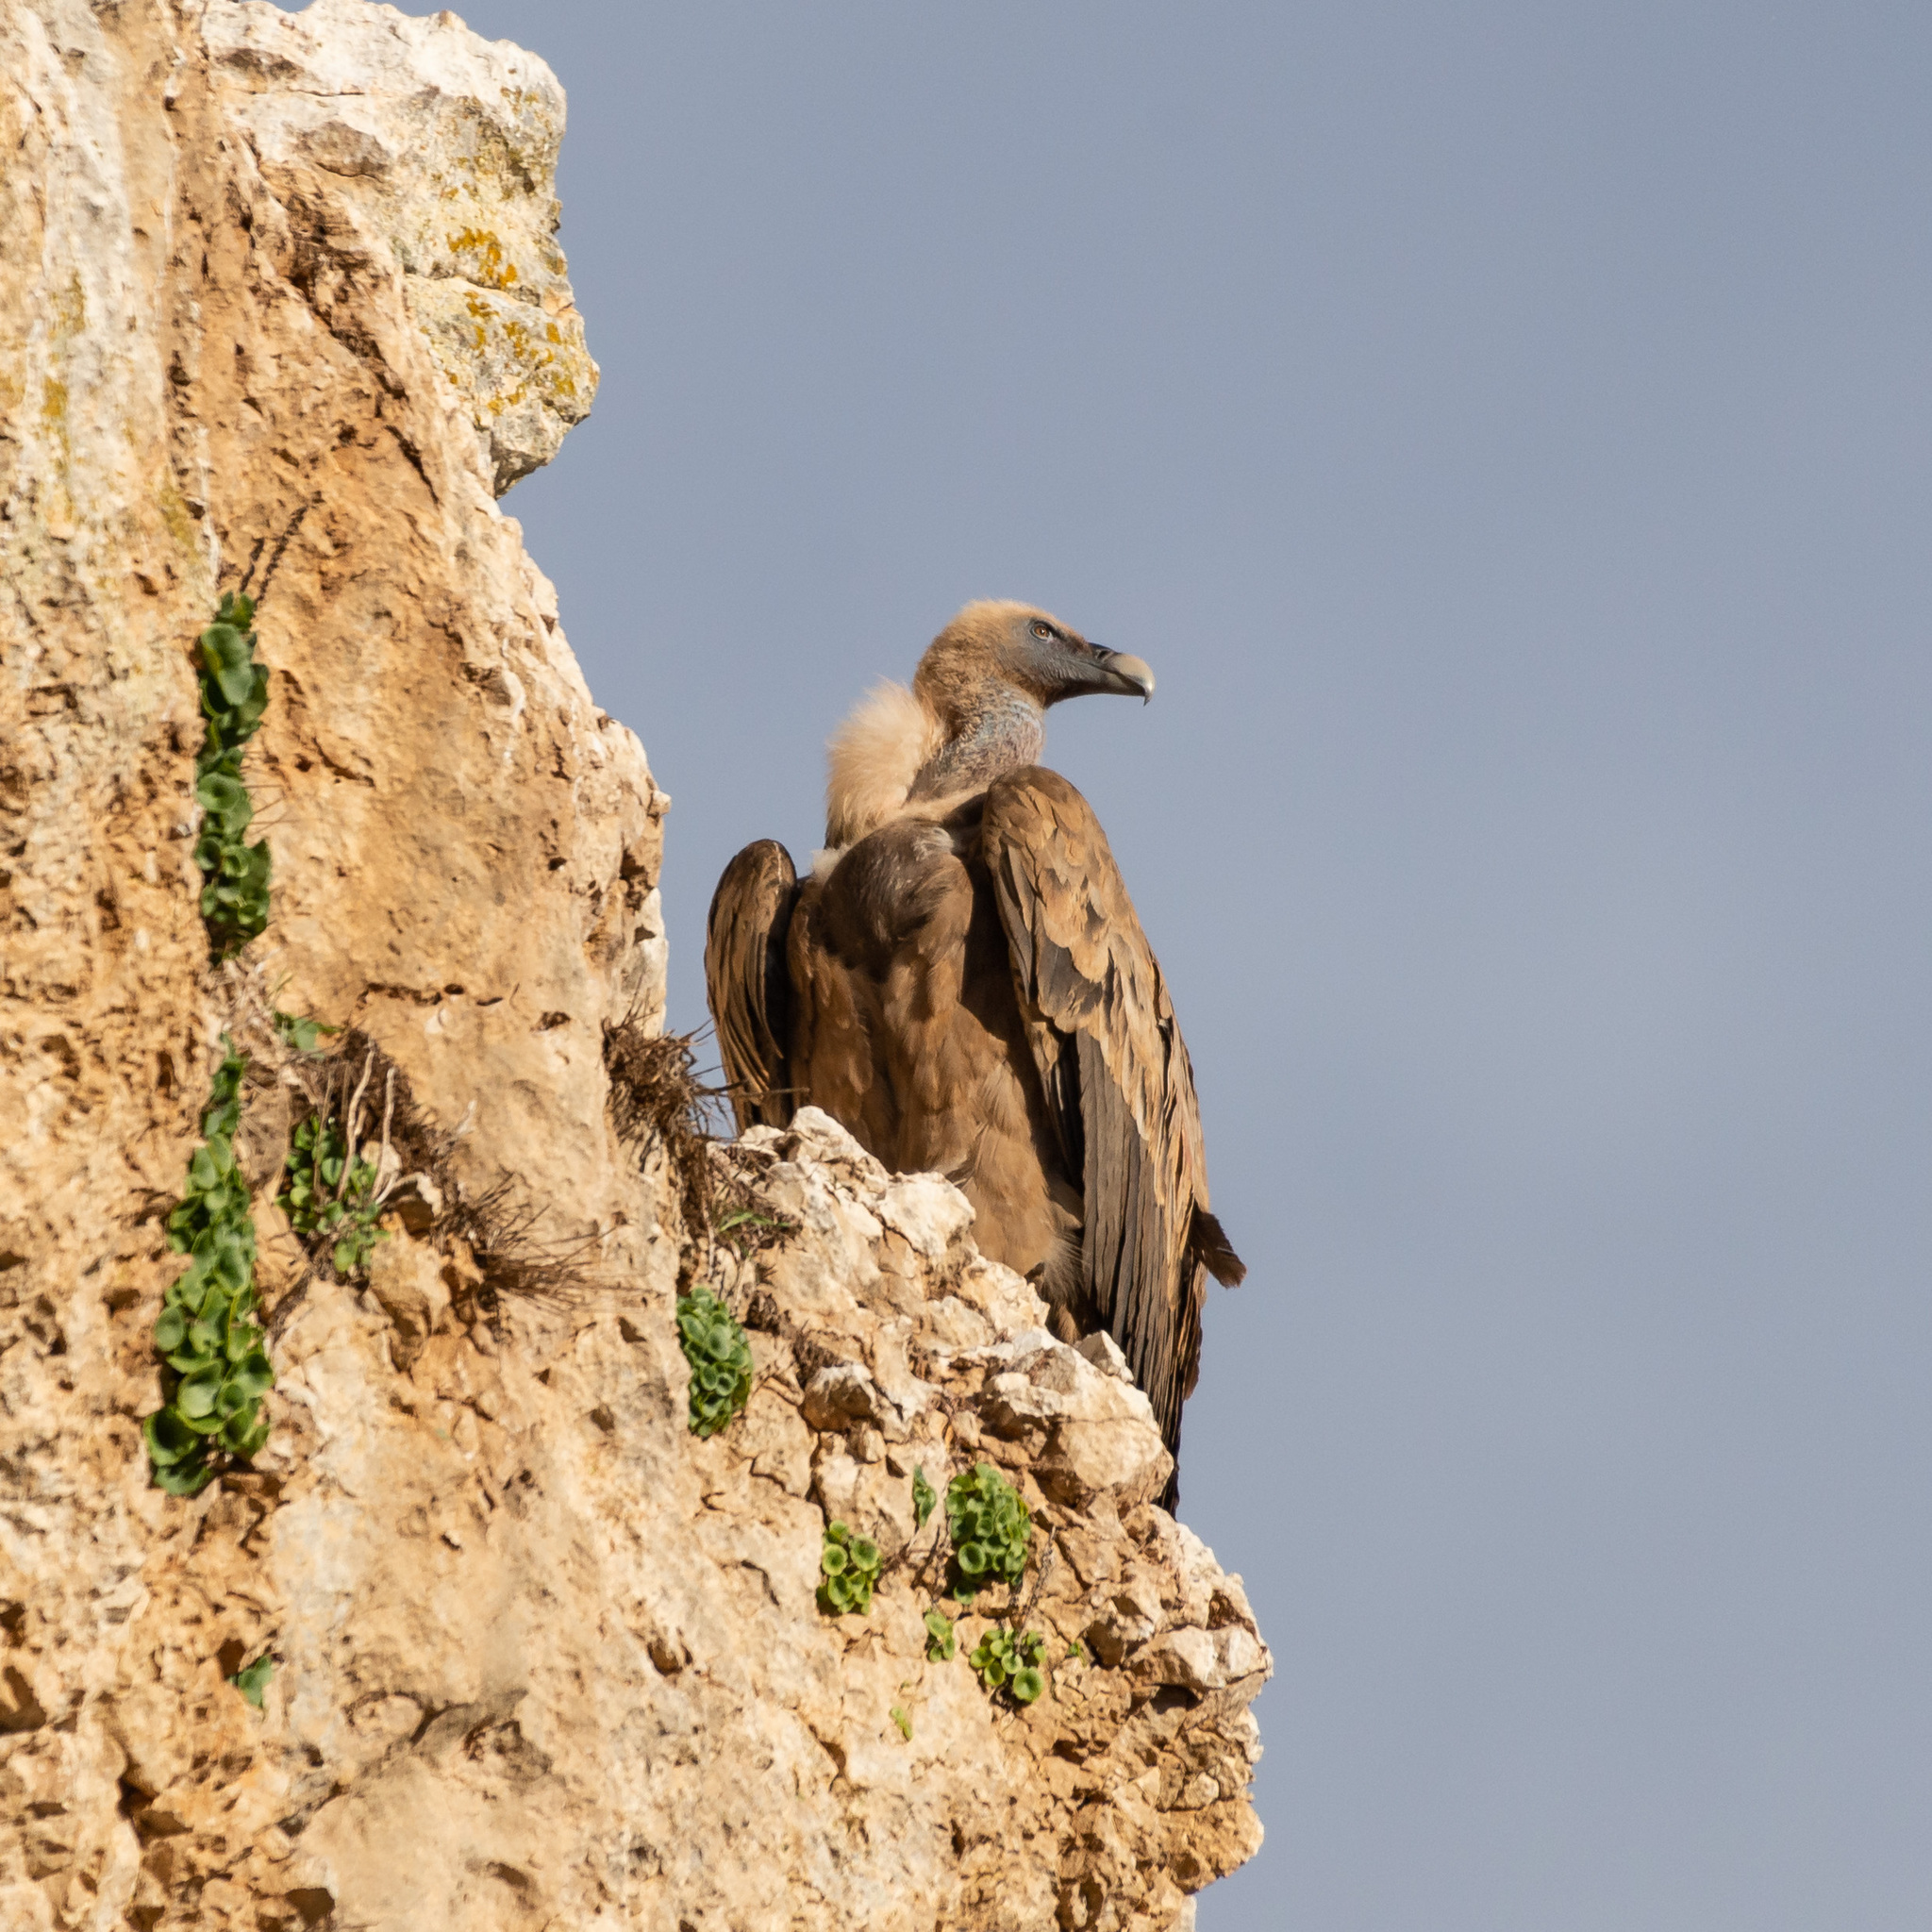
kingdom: Animalia
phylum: Chordata
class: Aves
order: Accipitriformes
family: Accipitridae
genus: Gyps
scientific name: Gyps fulvus
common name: Griffon vulture
